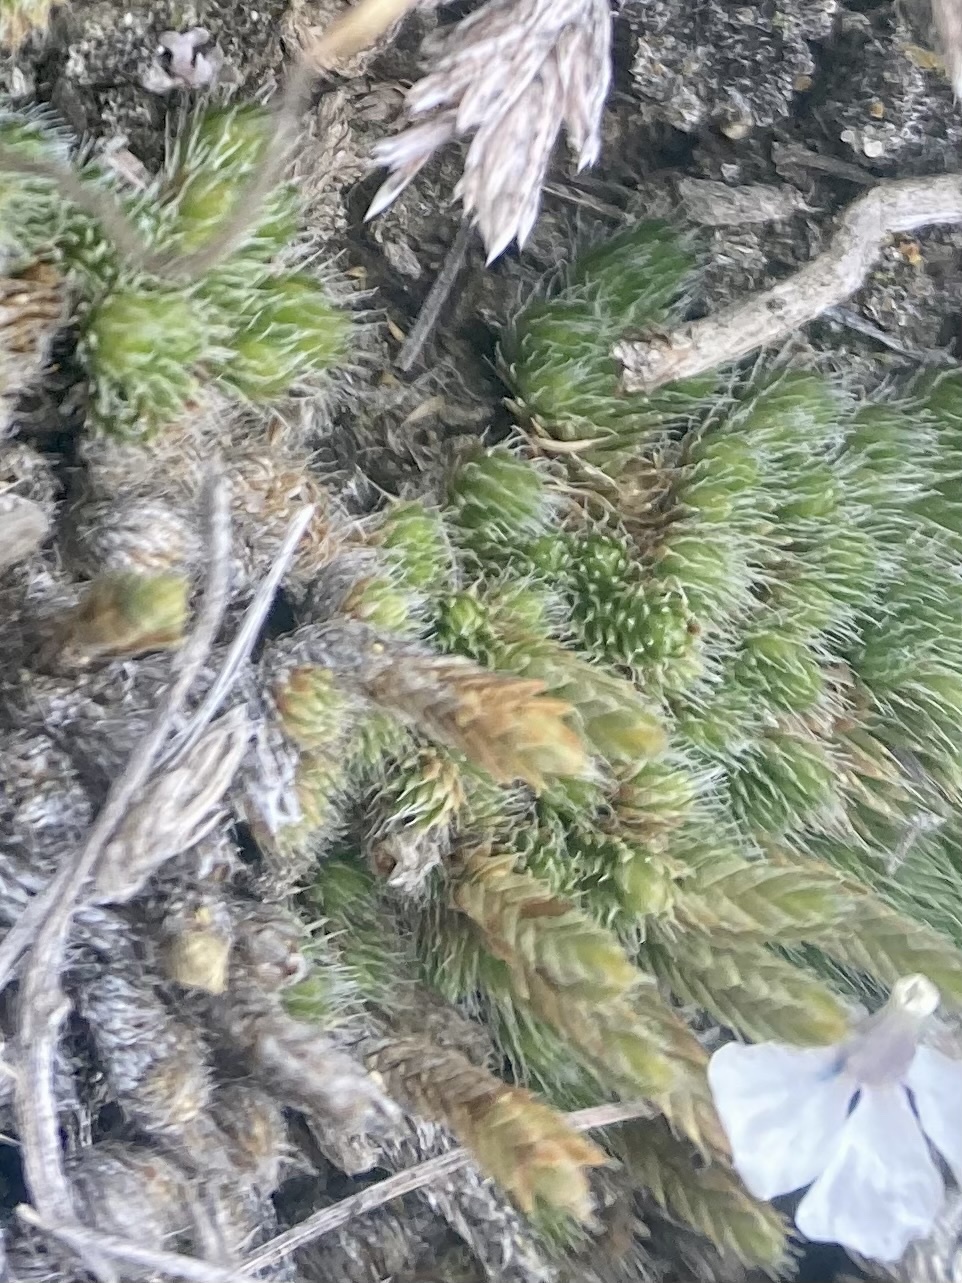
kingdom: Plantae
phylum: Tracheophyta
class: Lycopodiopsida
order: Selaginellales
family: Selaginellaceae
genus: Selaginella
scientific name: Selaginella densa
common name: Mountain spike-moss
